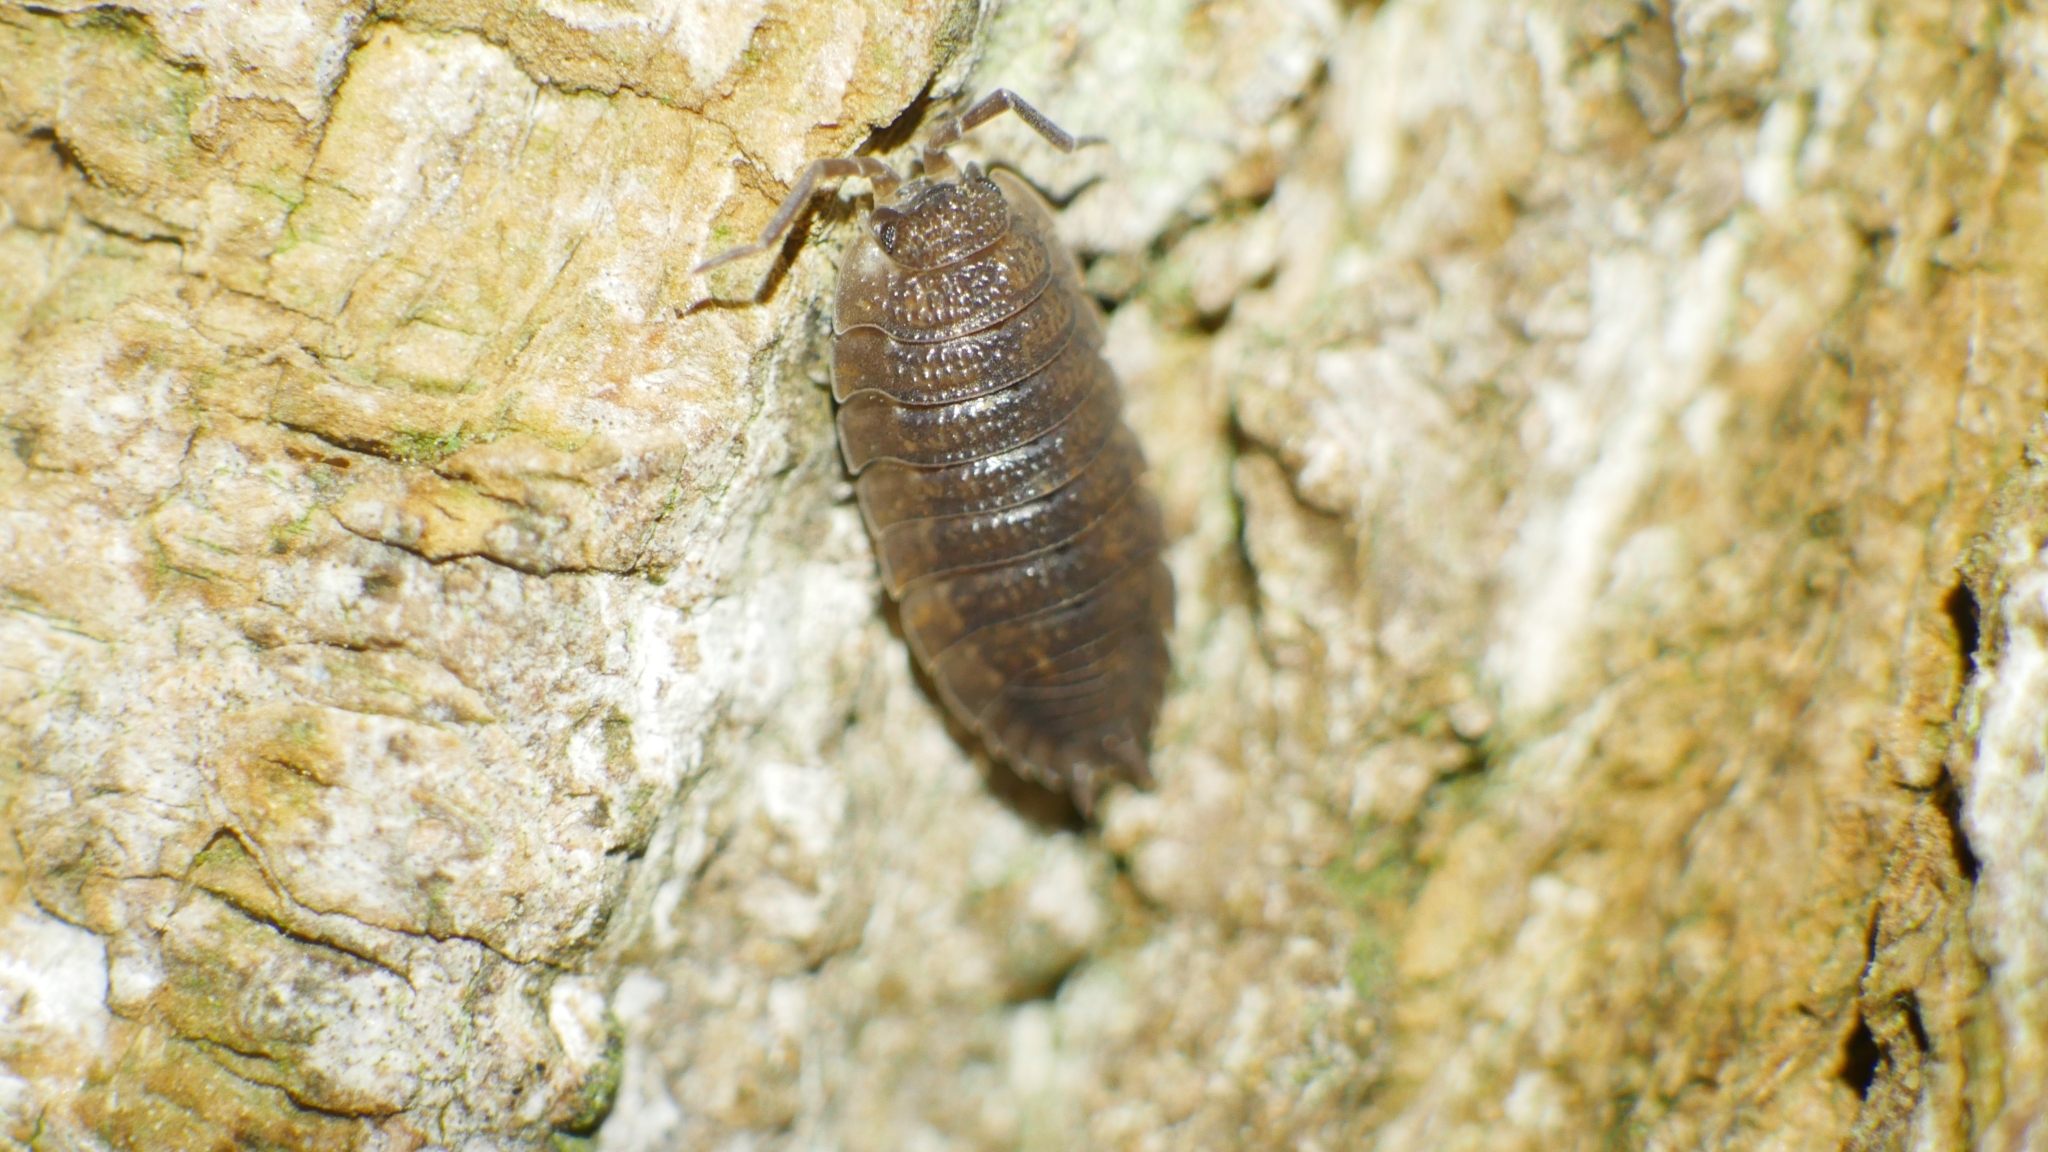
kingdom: Animalia
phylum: Arthropoda
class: Malacostraca
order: Isopoda
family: Porcellionidae
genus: Porcellio
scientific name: Porcellio scaber
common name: Common rough woodlouse
